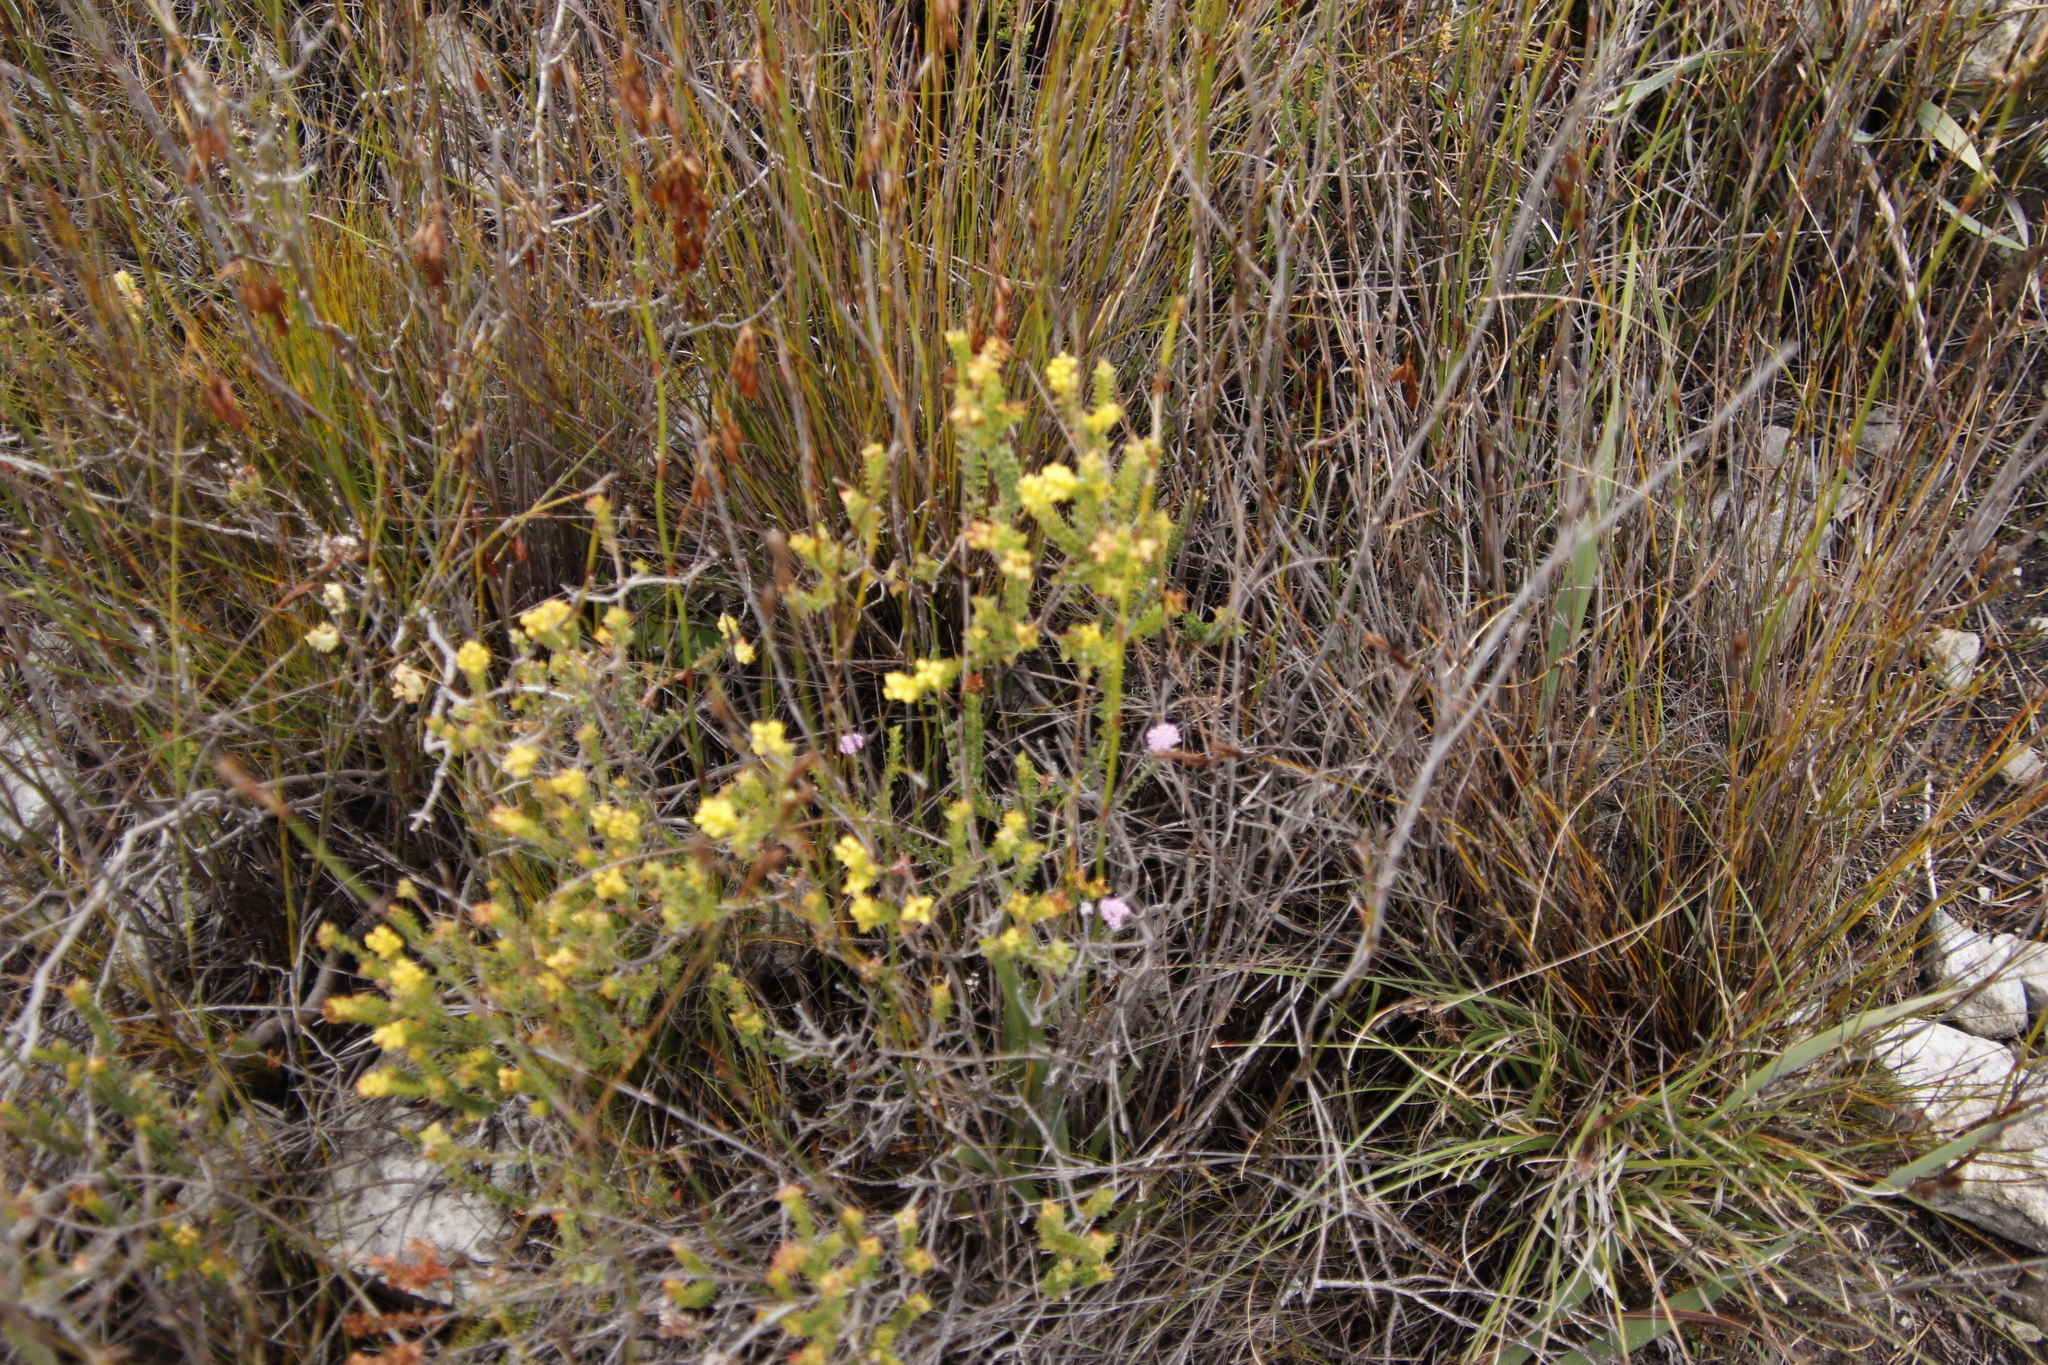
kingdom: Plantae
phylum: Tracheophyta
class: Magnoliopsida
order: Myrtales
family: Penaeaceae
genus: Penaea
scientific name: Penaea mucronata
